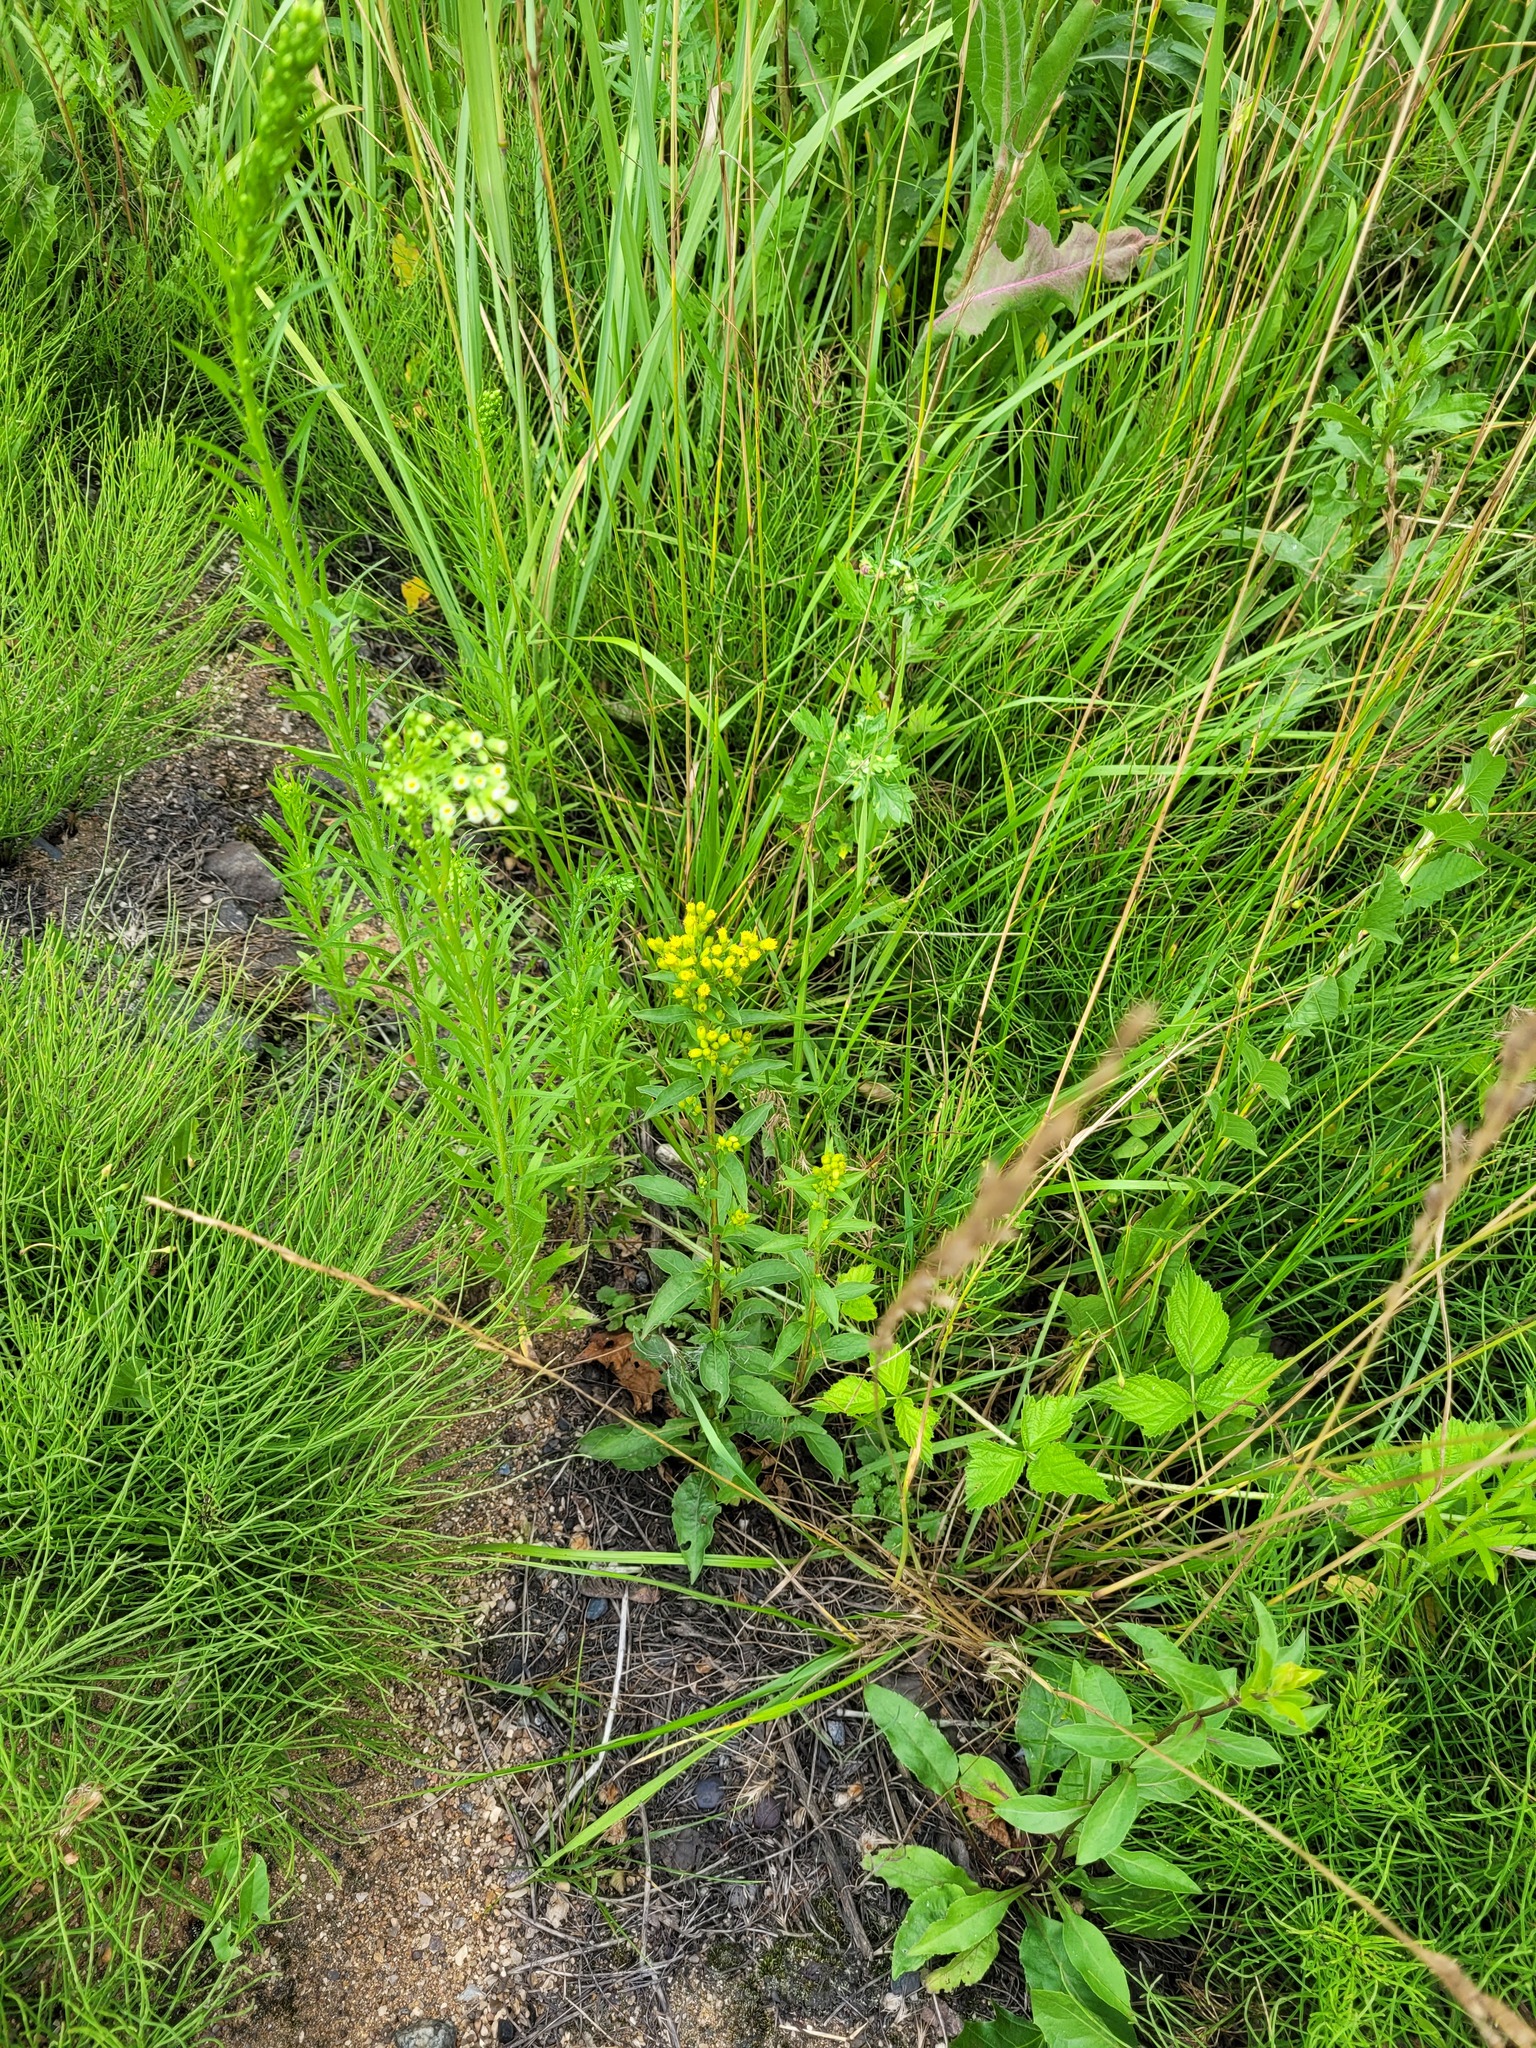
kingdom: Plantae
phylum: Tracheophyta
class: Magnoliopsida
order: Asterales
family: Asteraceae
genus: Solidago
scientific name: Solidago virgaurea
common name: Goldenrod
